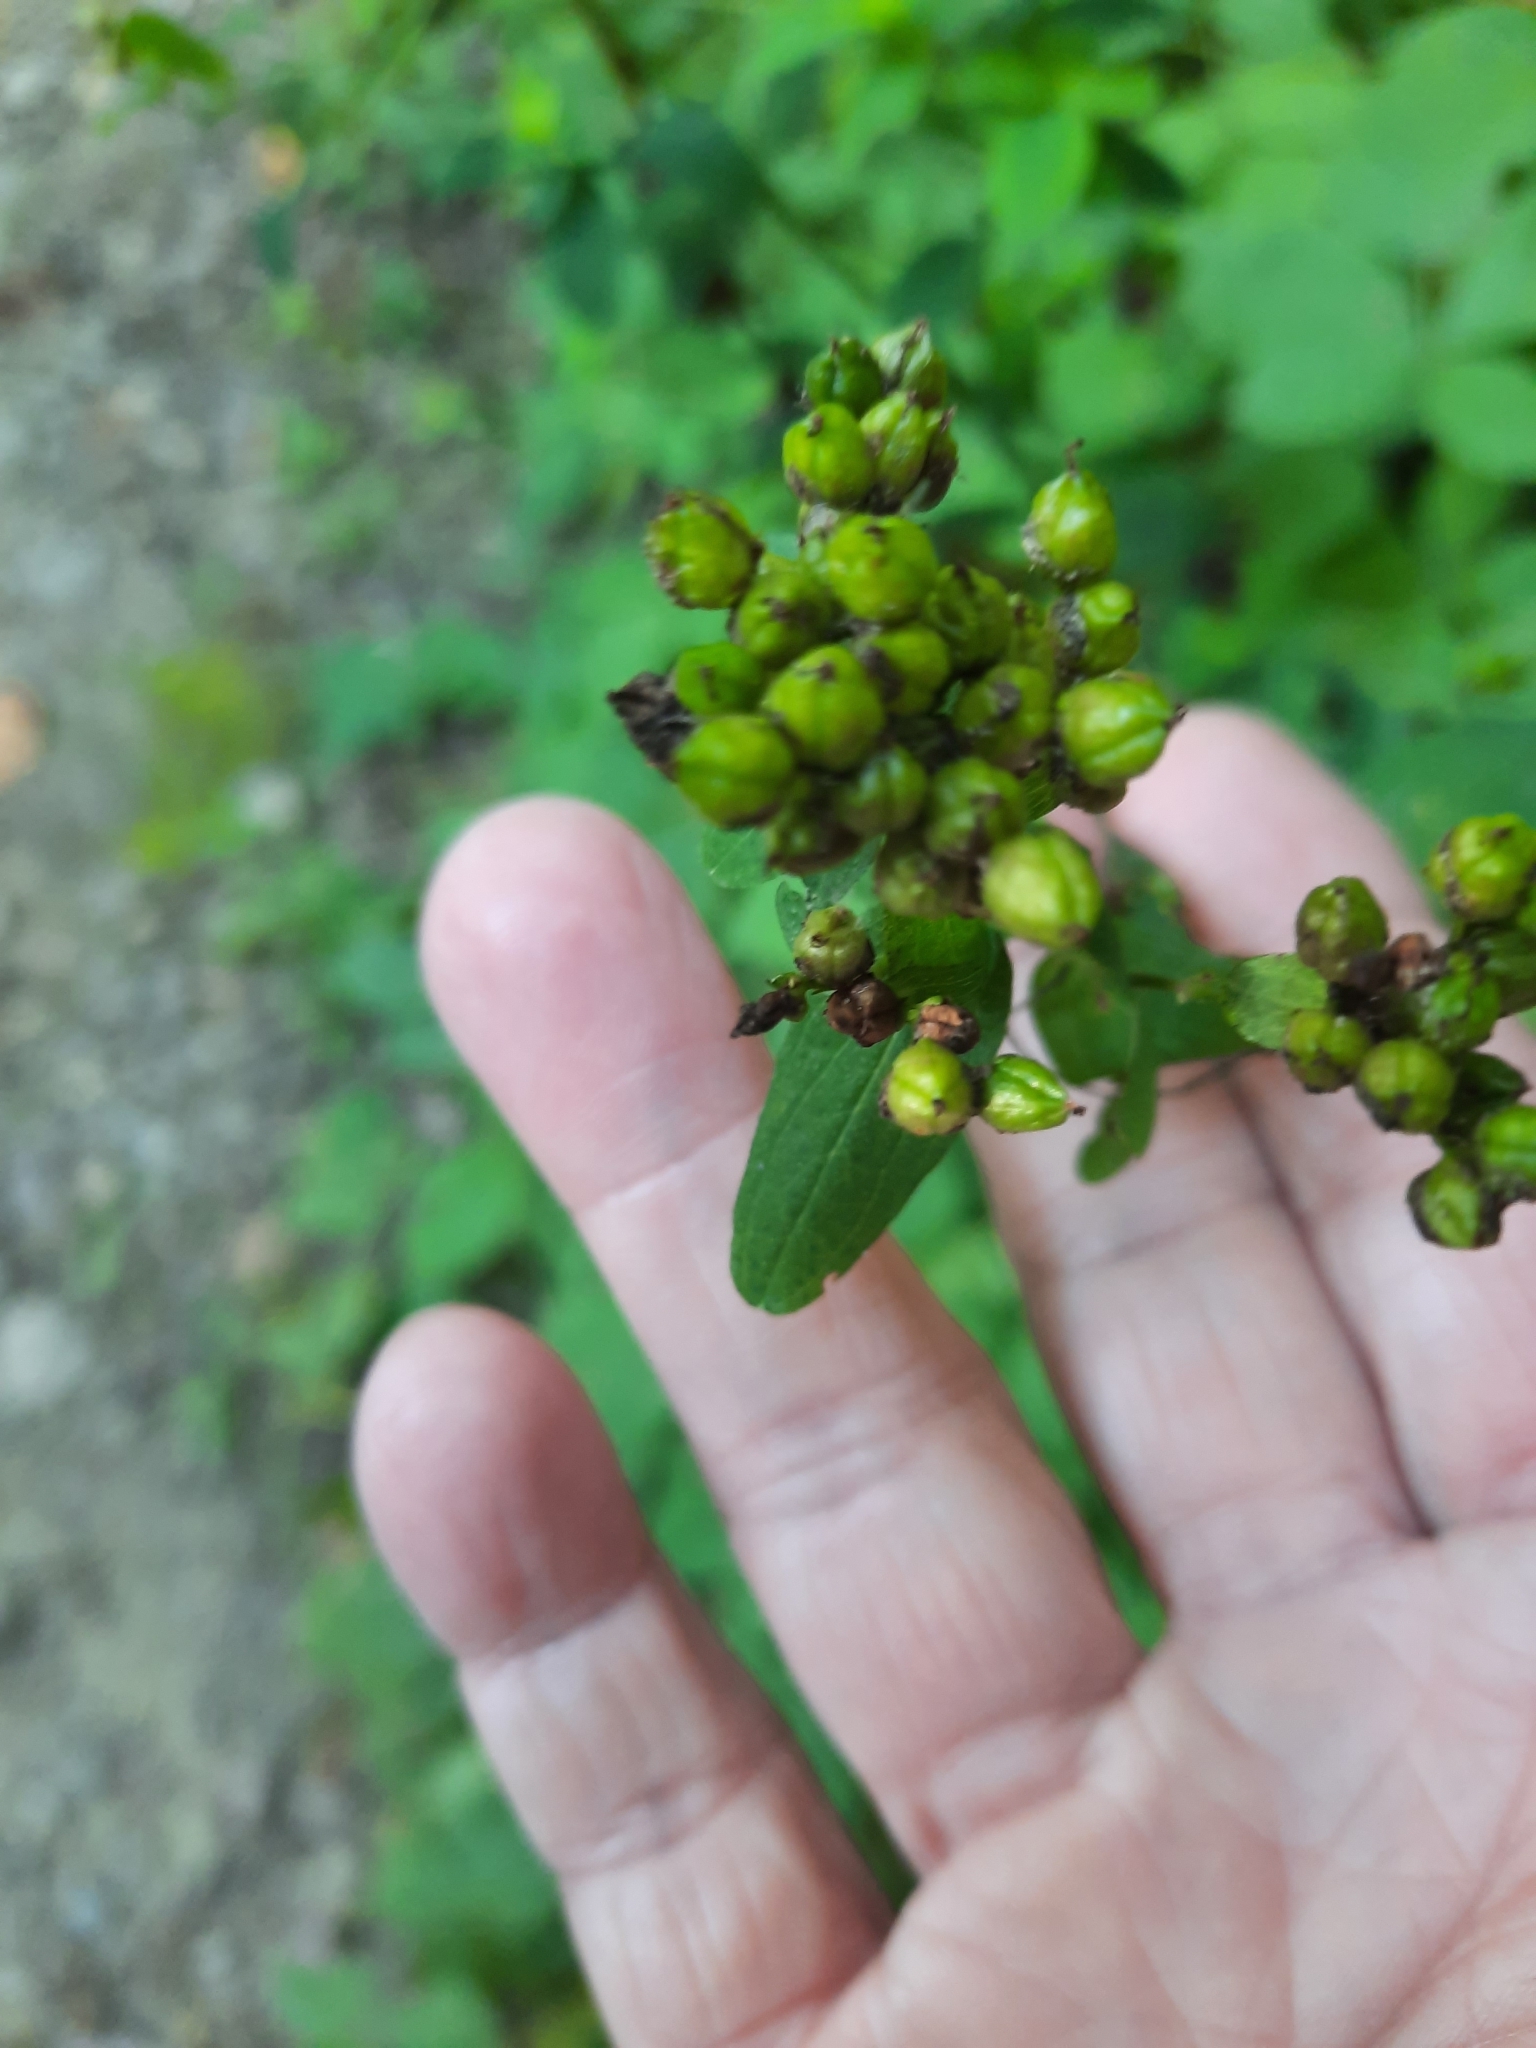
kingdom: Plantae
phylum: Tracheophyta
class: Magnoliopsida
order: Malpighiales
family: Hypericaceae
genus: Hypericum
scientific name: Hypericum punctatum
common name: Spotted st. john's-wort
